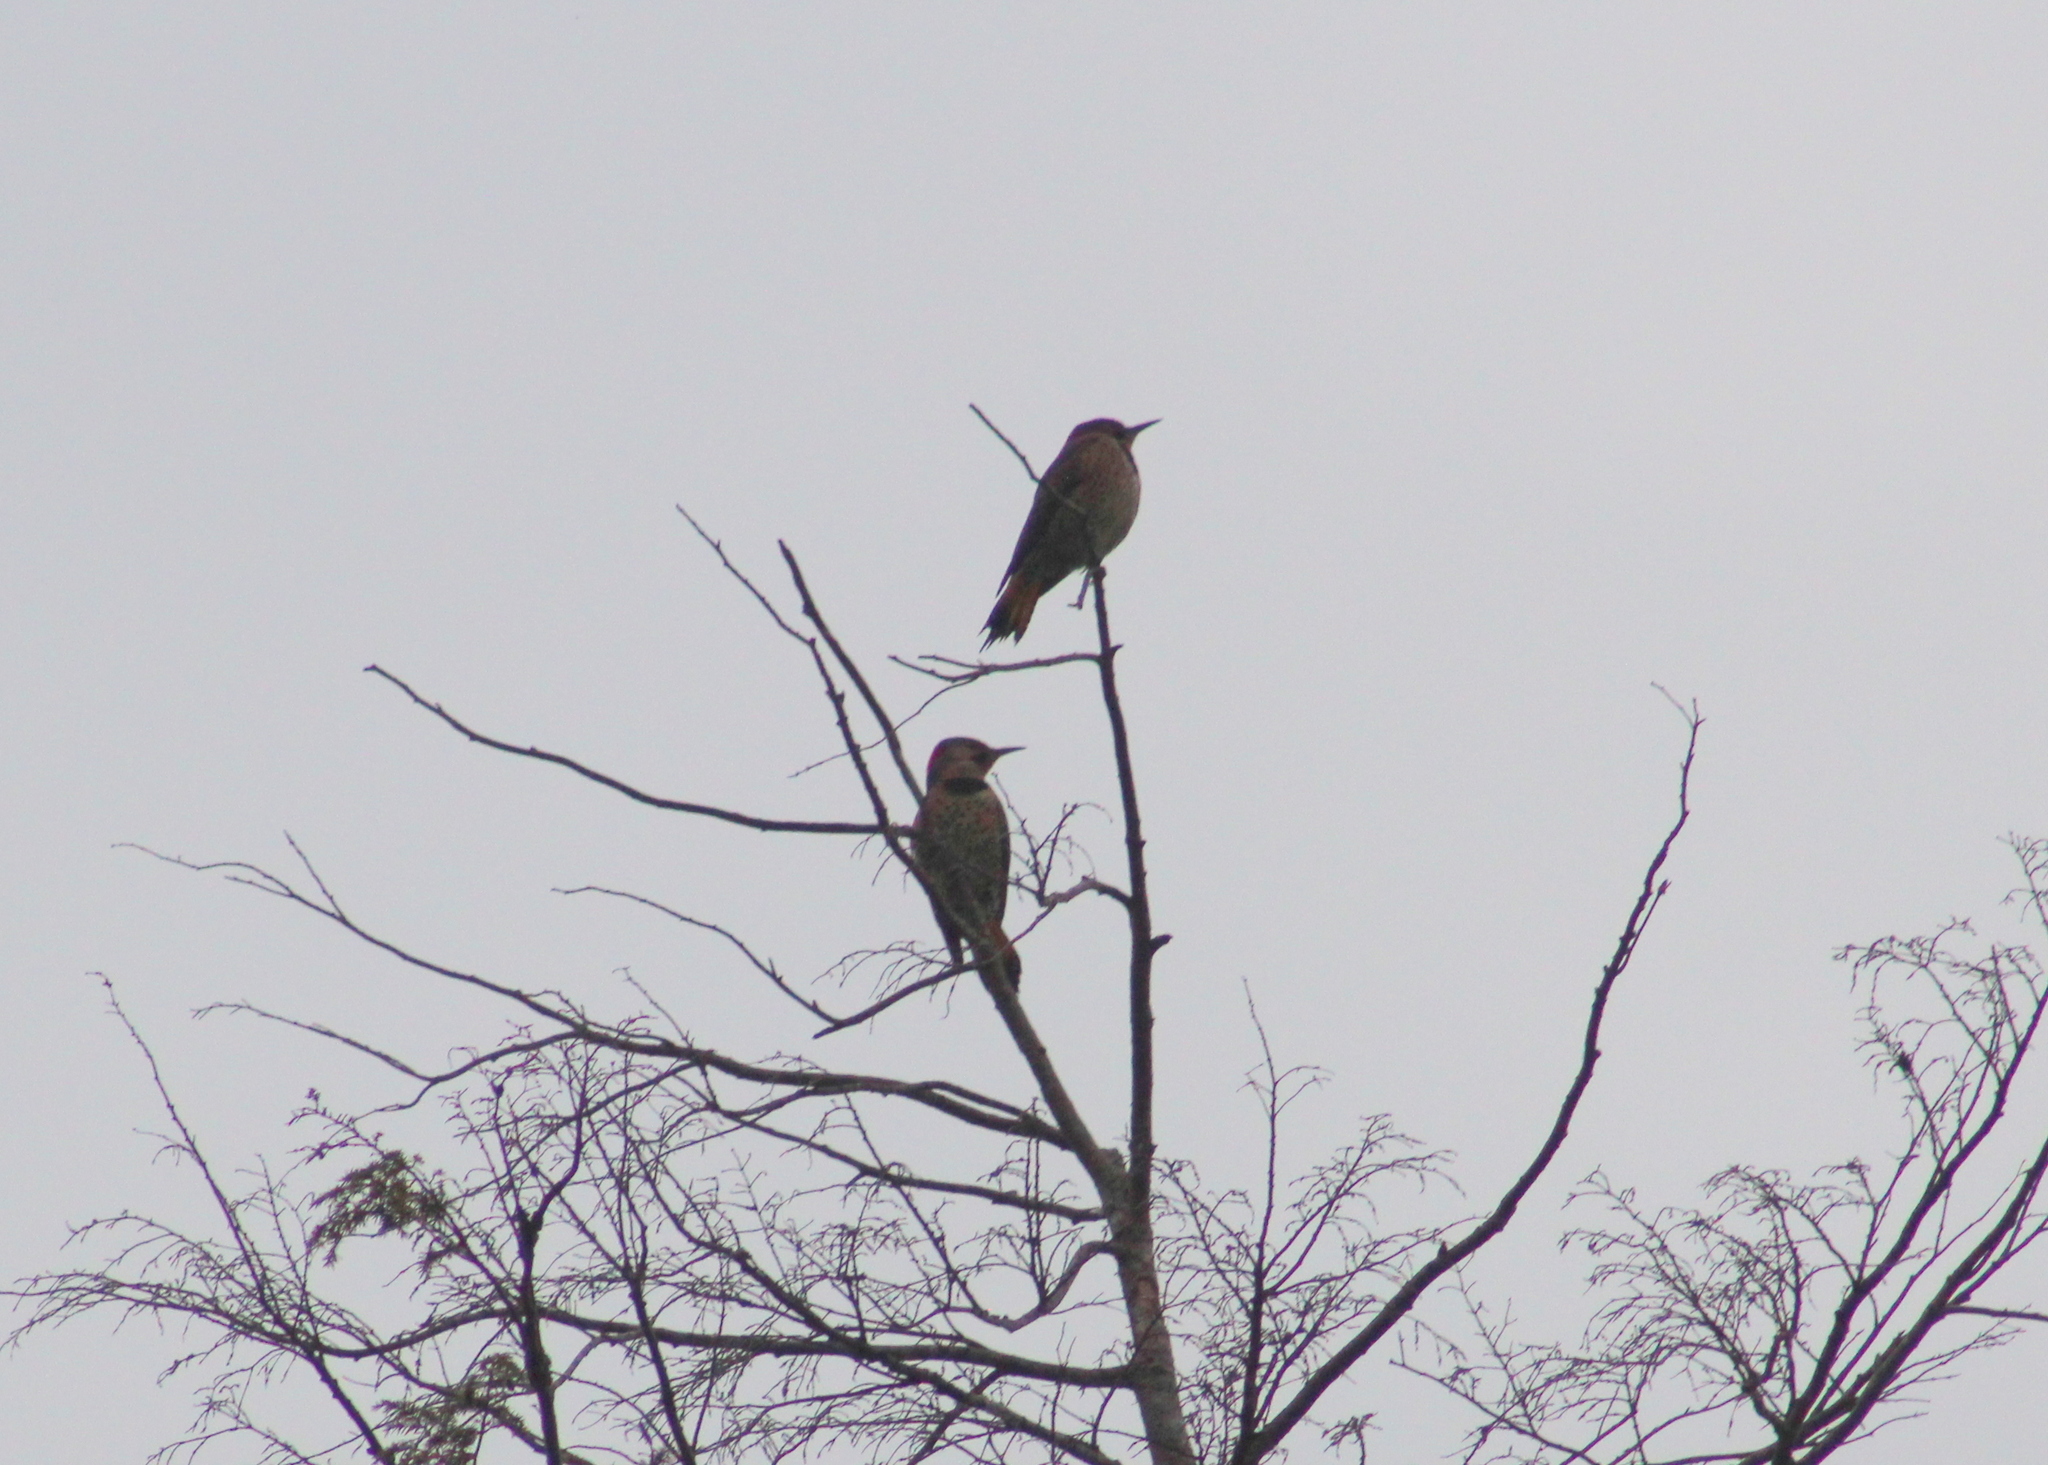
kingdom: Animalia
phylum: Chordata
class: Aves
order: Piciformes
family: Picidae
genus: Colaptes
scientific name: Colaptes auratus
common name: Northern flicker
